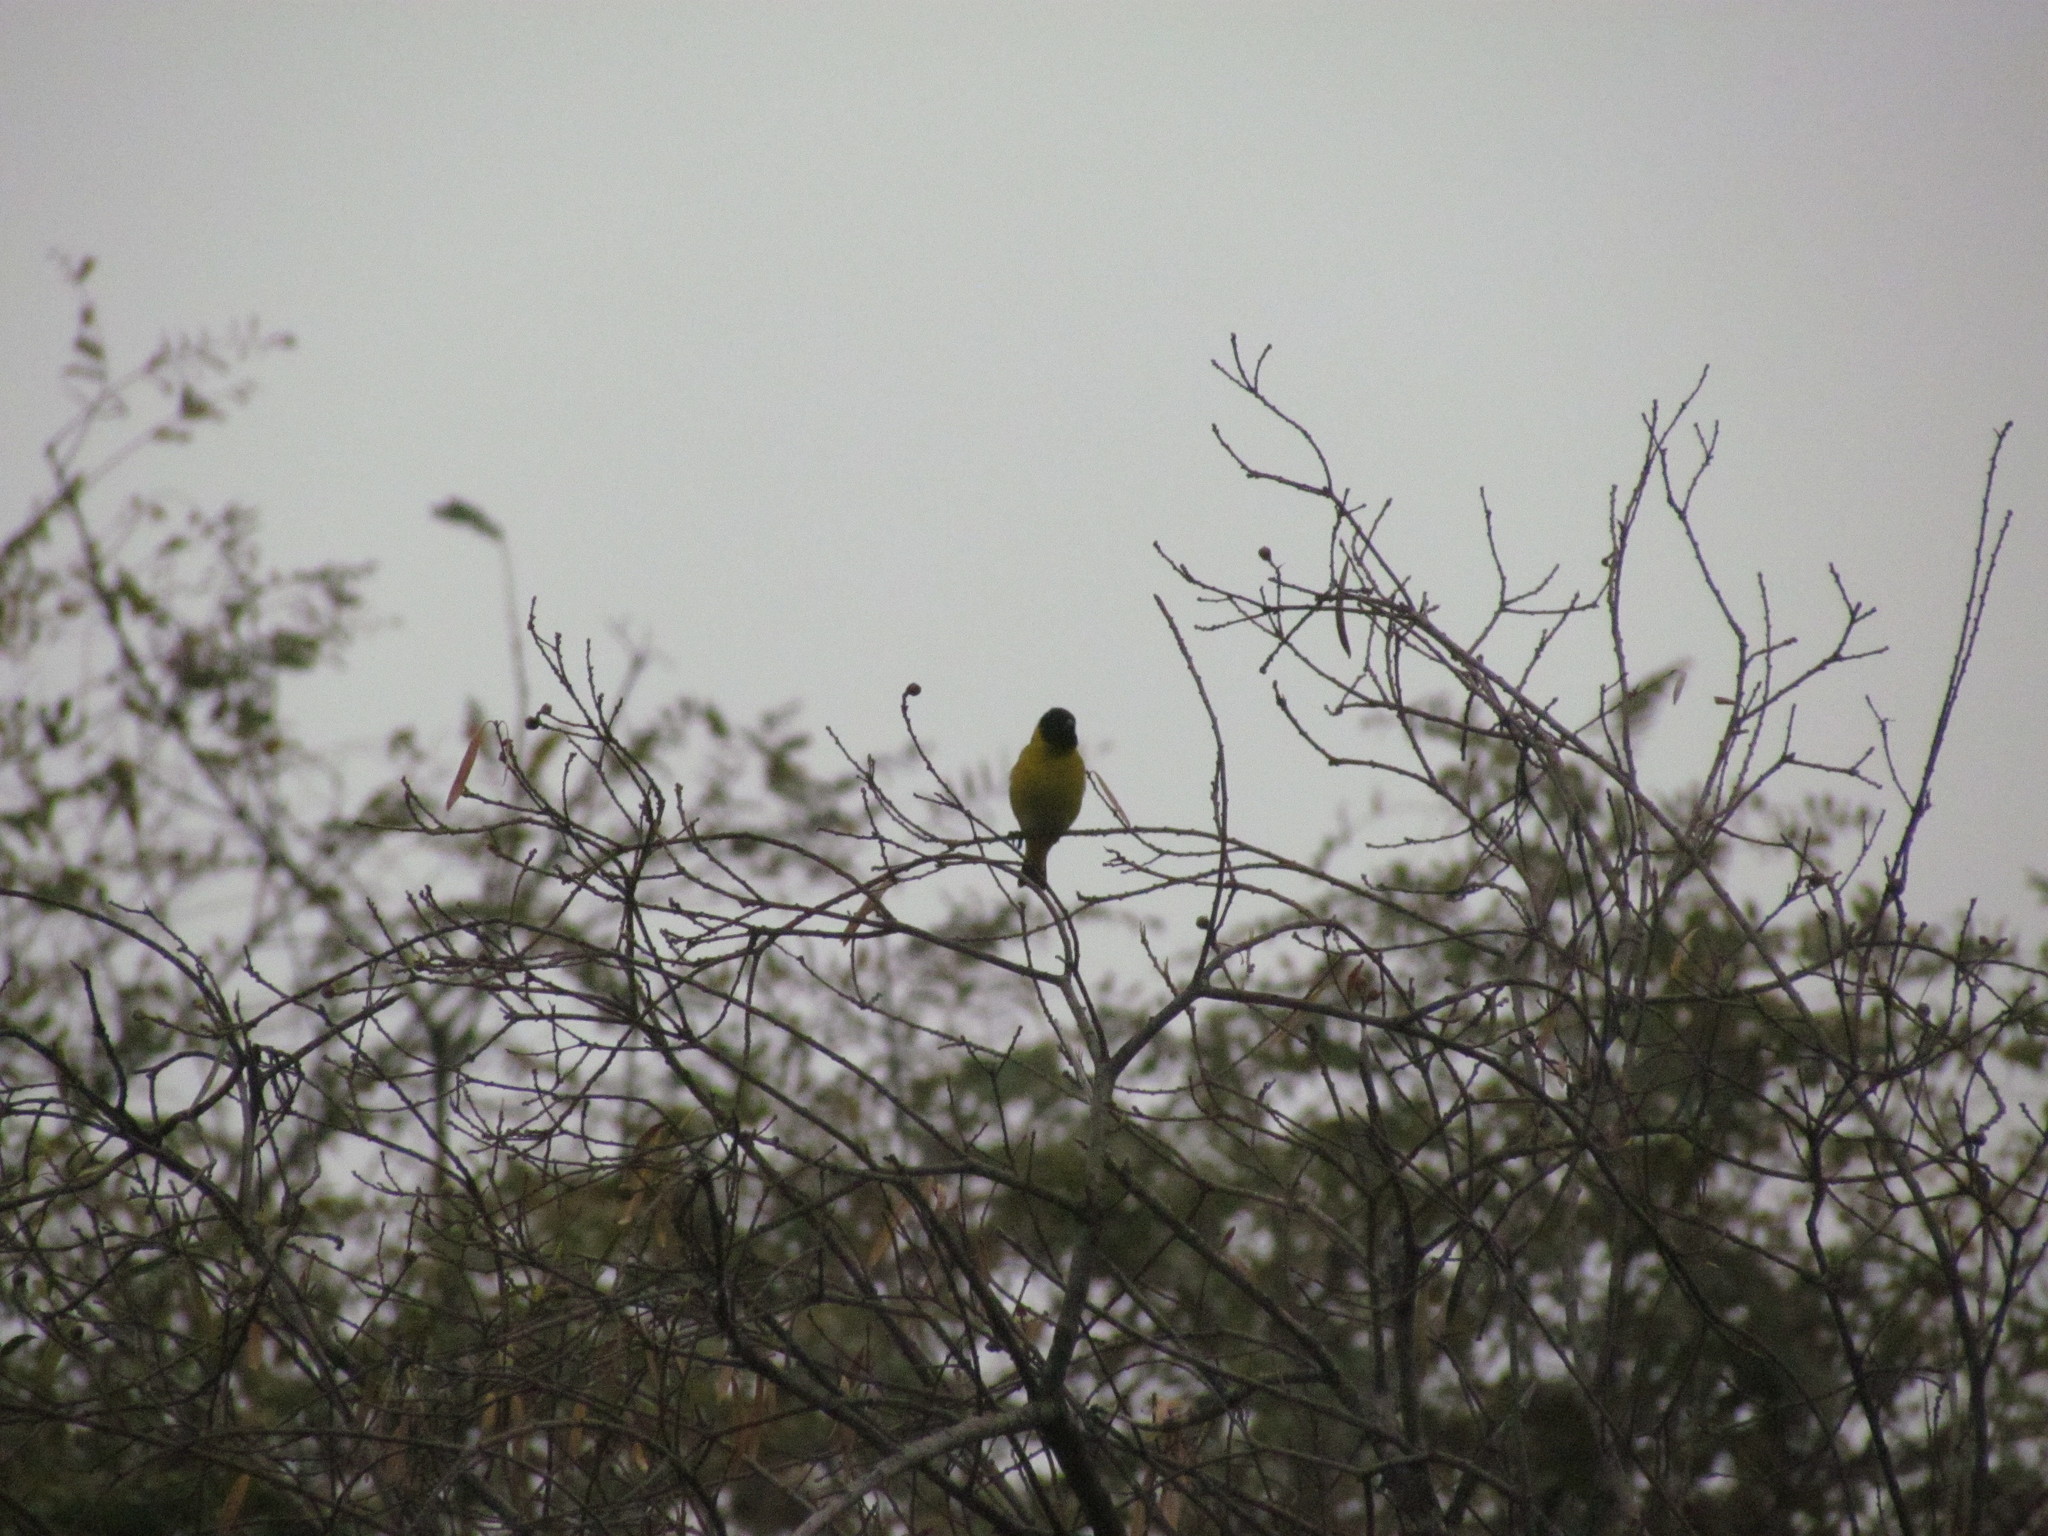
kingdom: Animalia
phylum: Chordata
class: Aves
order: Passeriformes
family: Fringillidae
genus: Spinus
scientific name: Spinus magellanicus
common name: Hooded siskin
